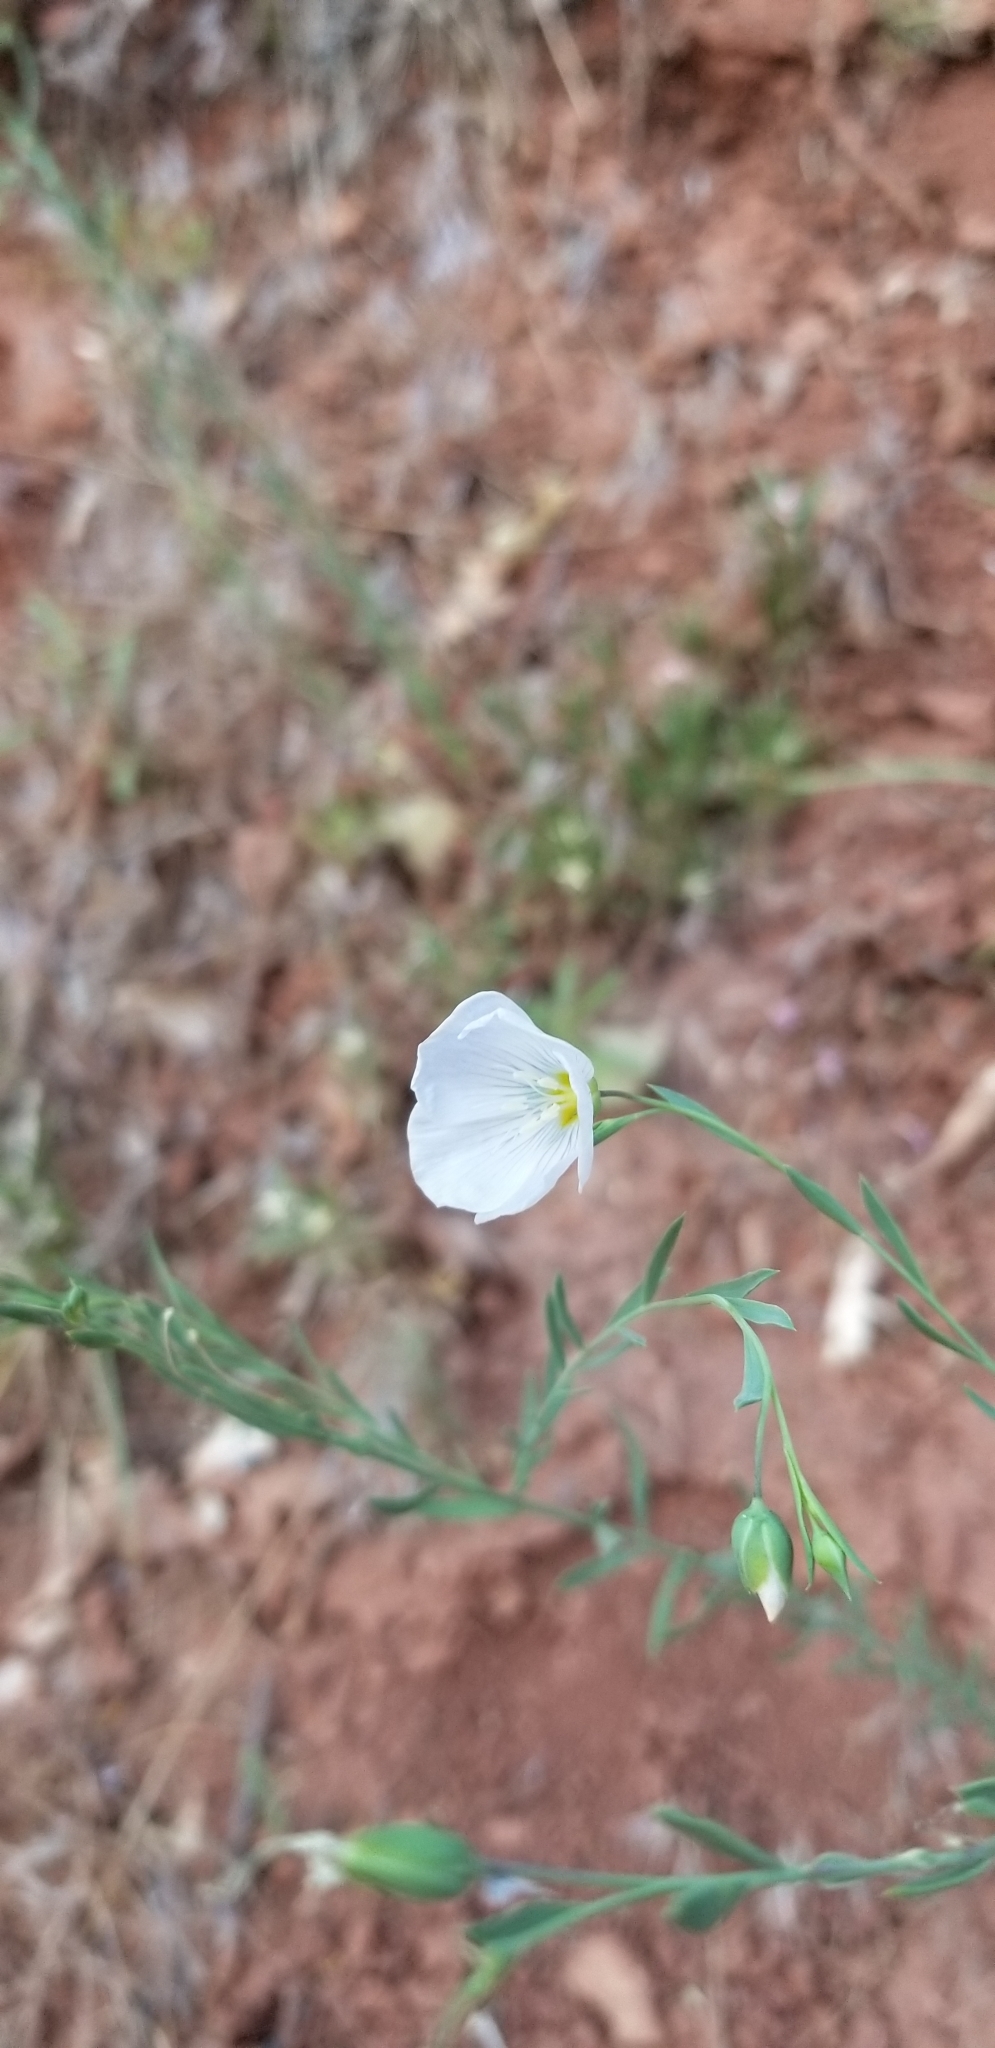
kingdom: Plantae
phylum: Tracheophyta
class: Magnoliopsida
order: Malpighiales
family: Linaceae
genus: Linum
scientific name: Linum lewisii
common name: Prairie flax
